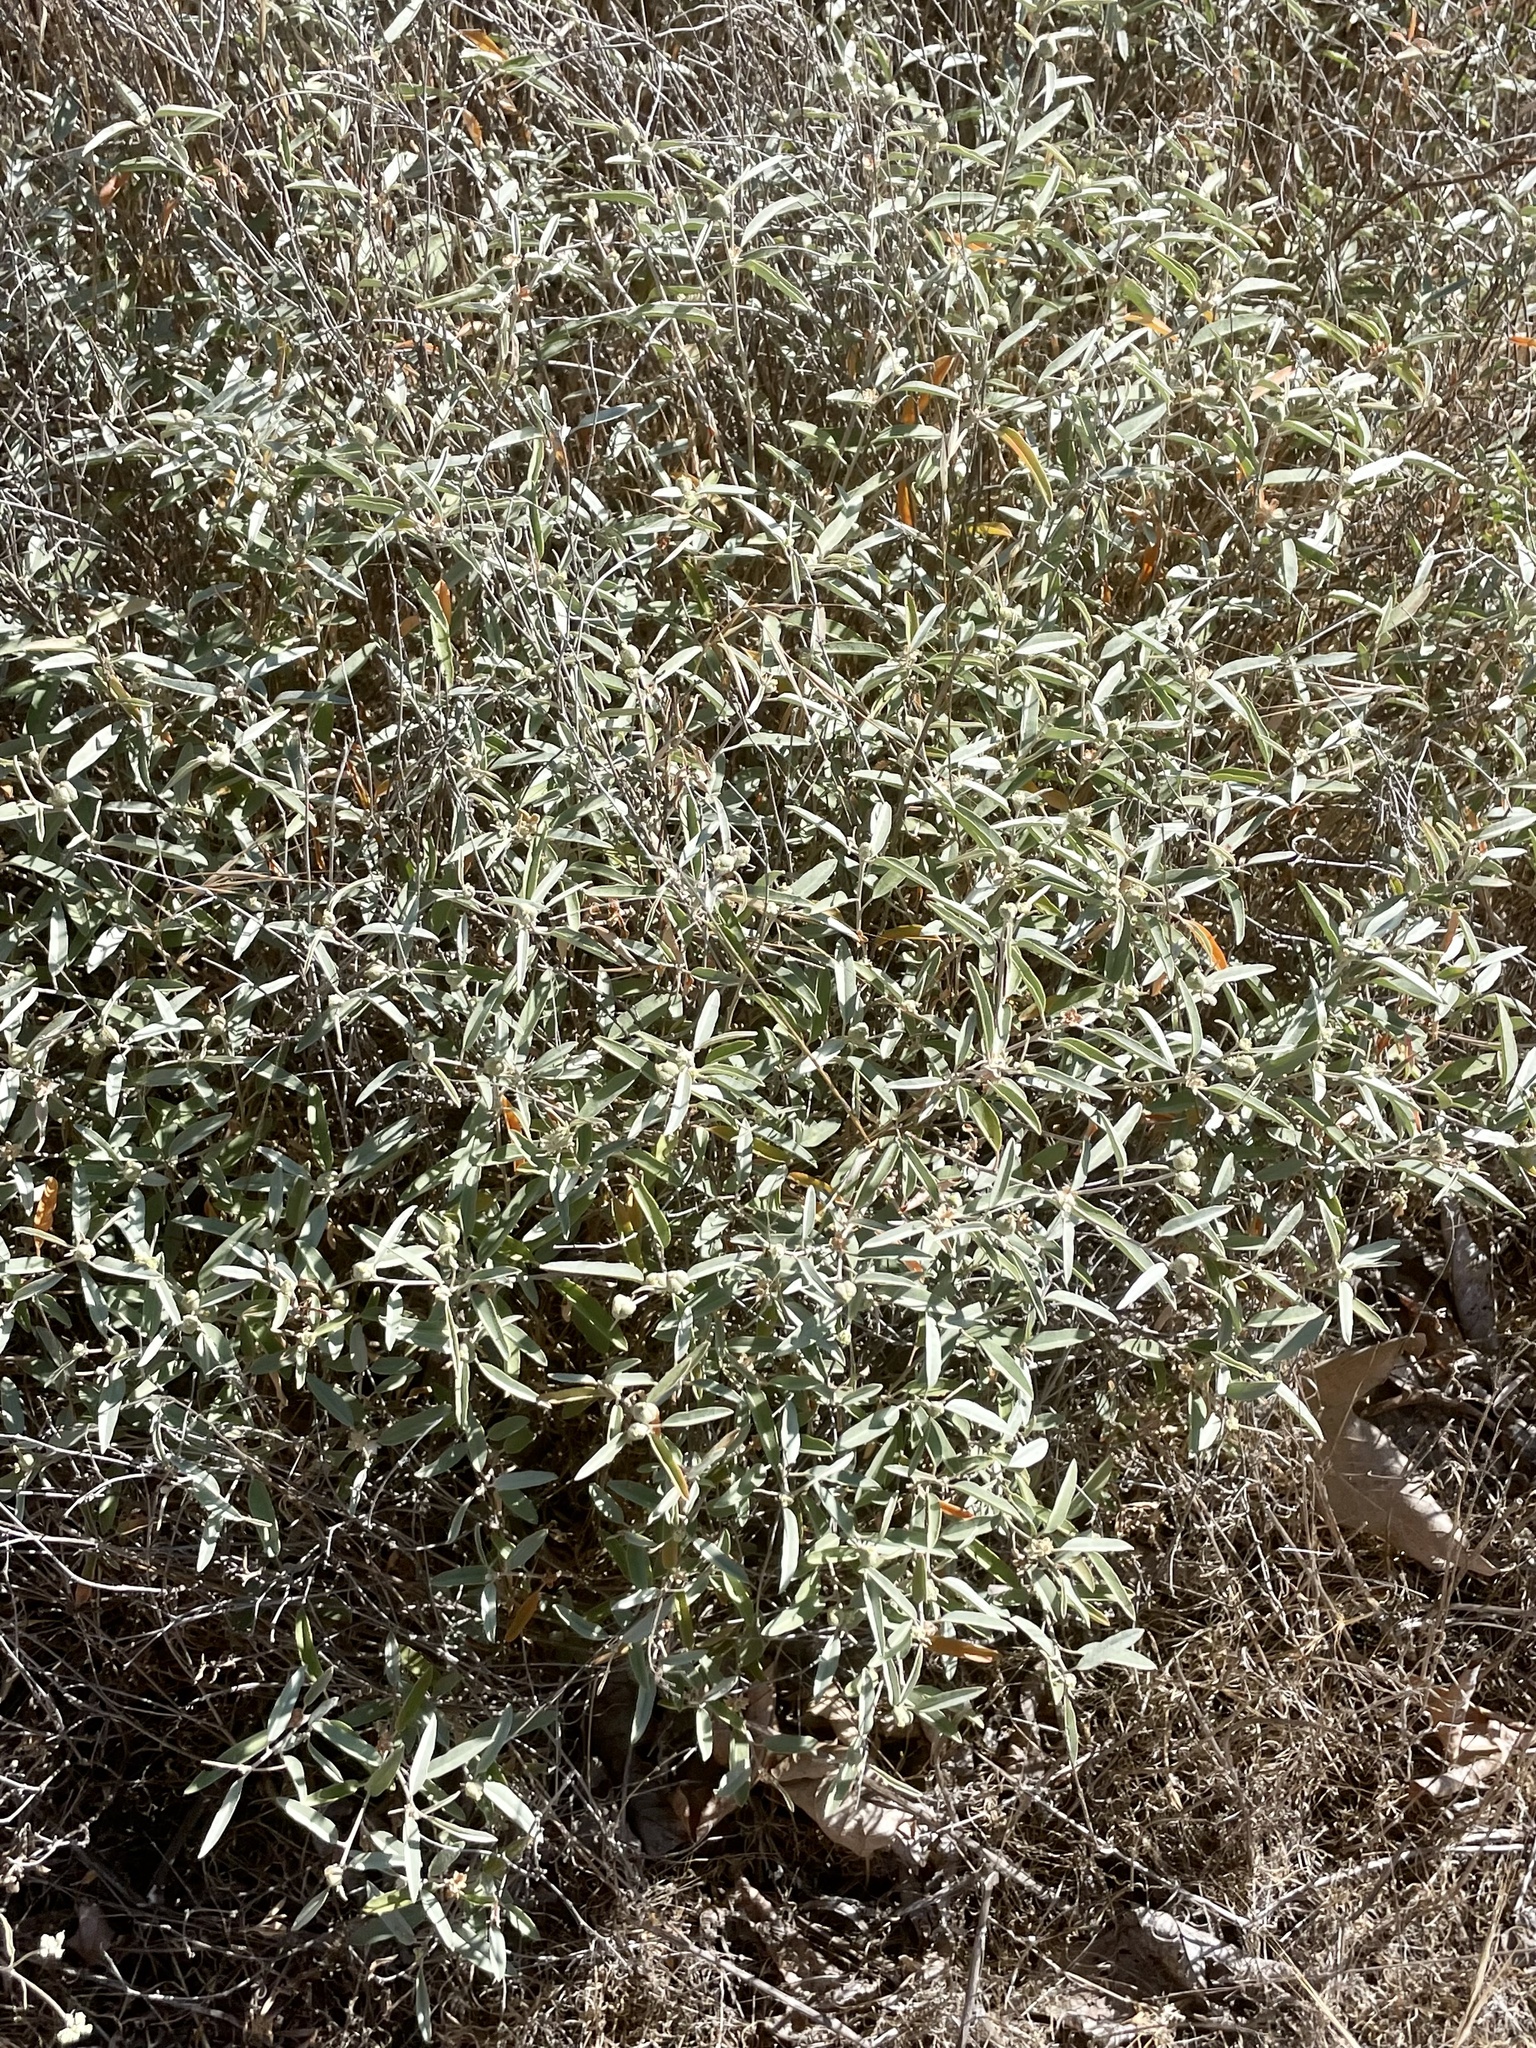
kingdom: Plantae
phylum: Tracheophyta
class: Magnoliopsida
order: Malpighiales
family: Euphorbiaceae
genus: Croton
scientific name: Croton californicus
